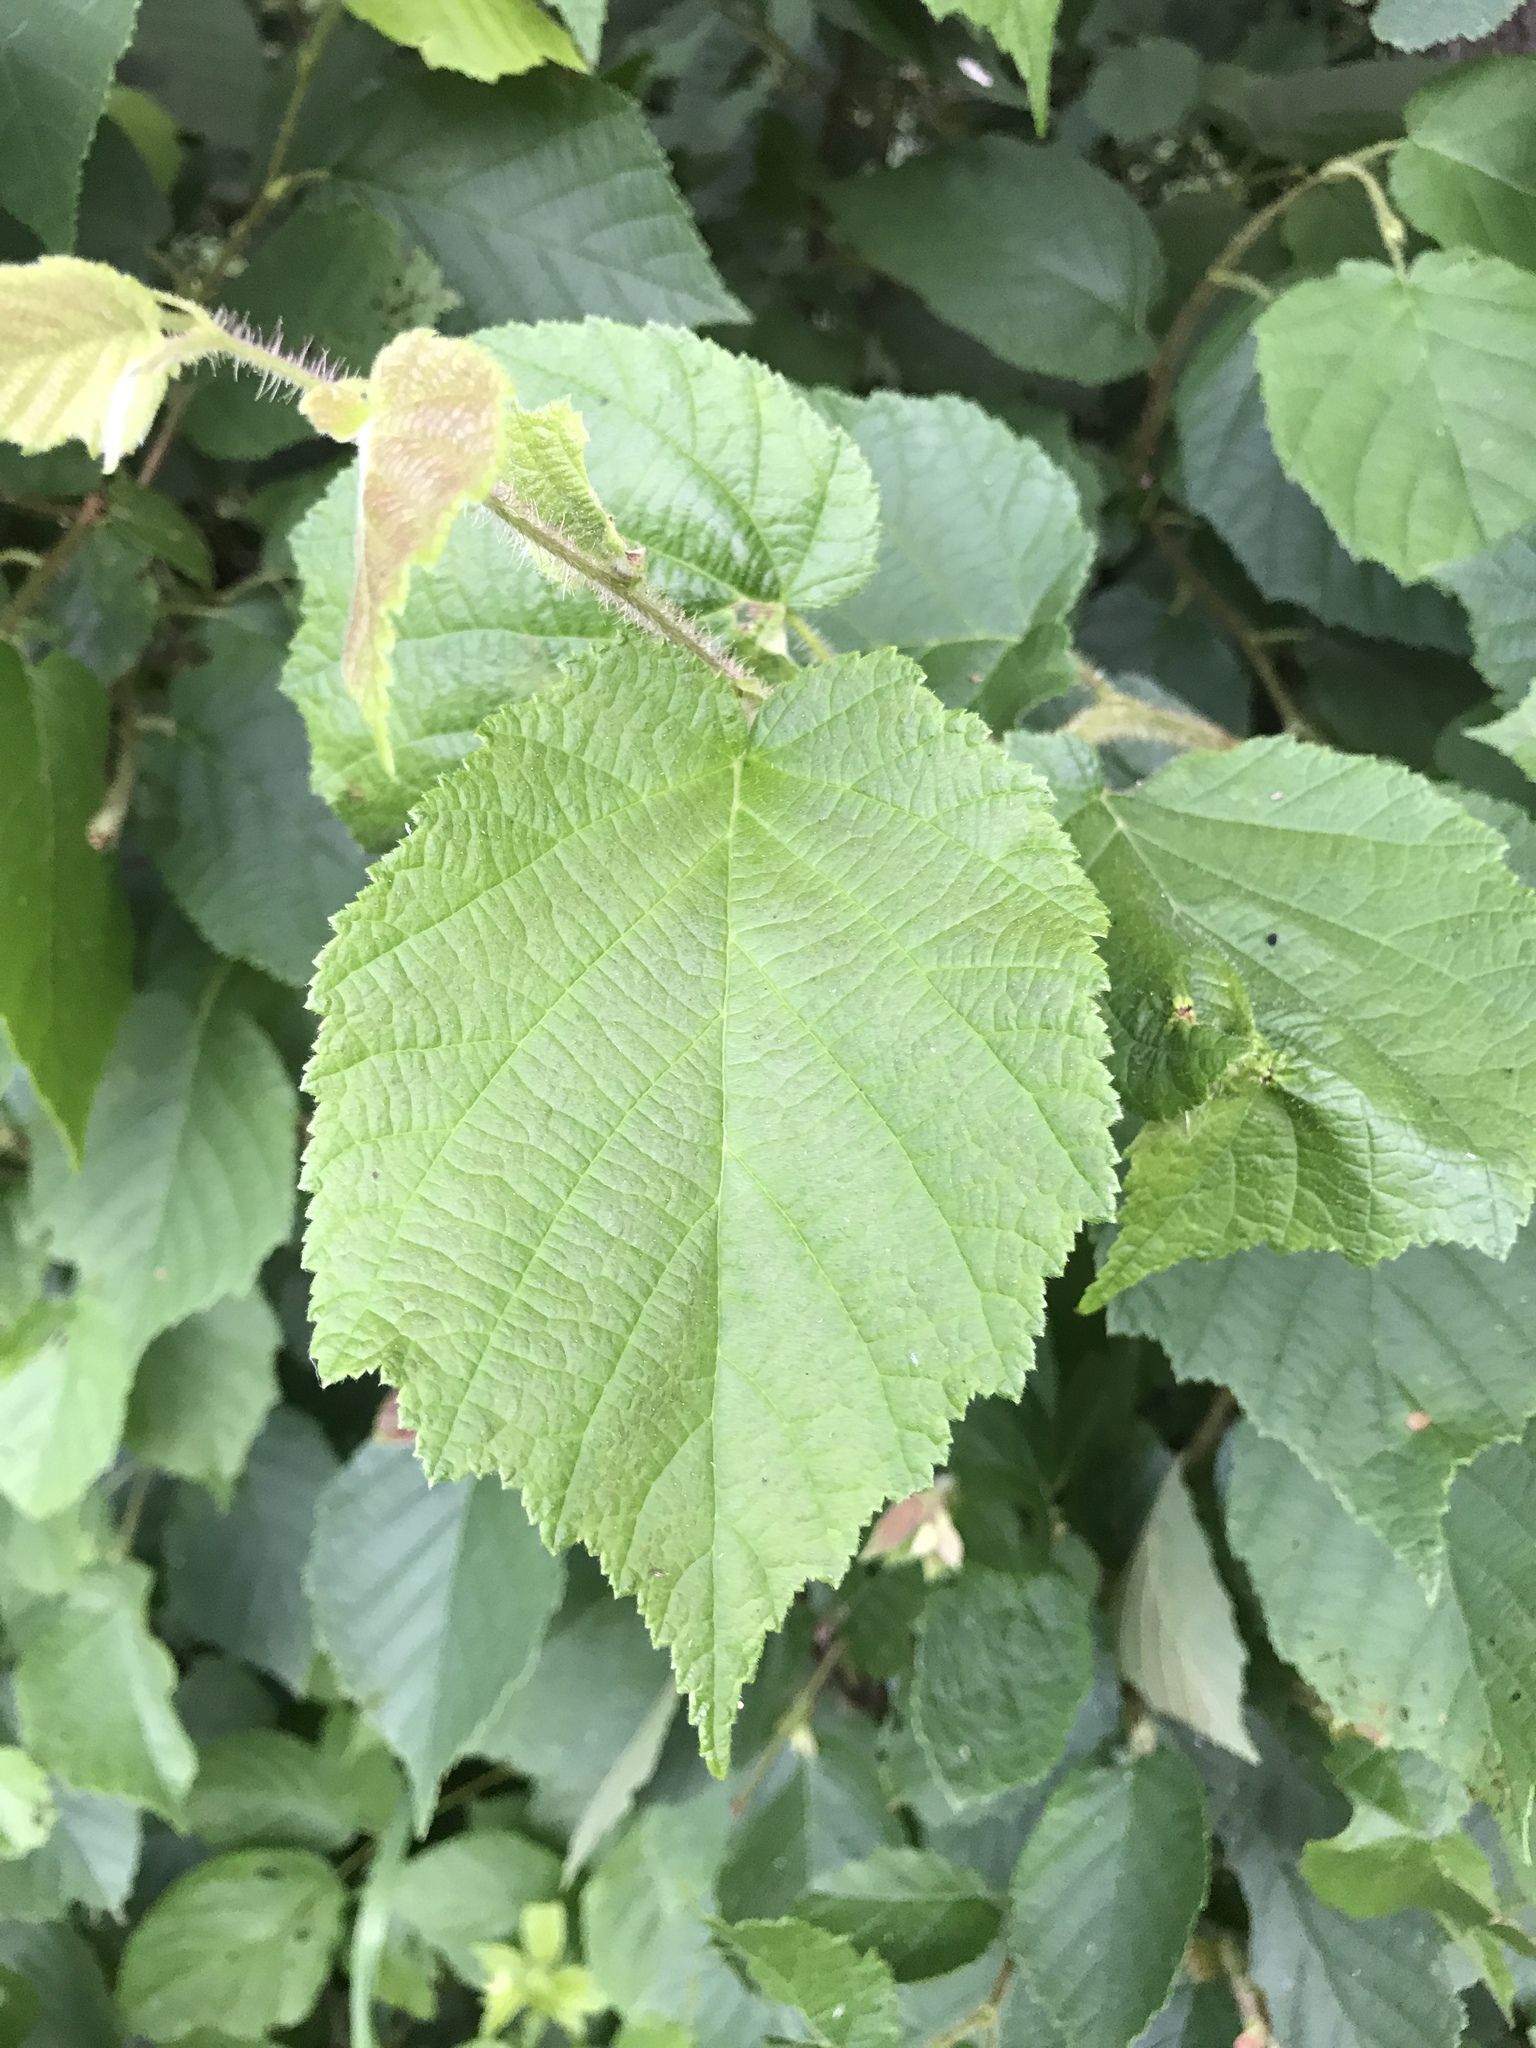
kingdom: Plantae
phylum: Tracheophyta
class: Magnoliopsida
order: Fagales
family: Betulaceae
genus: Corylus
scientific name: Corylus americana
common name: American hazel
